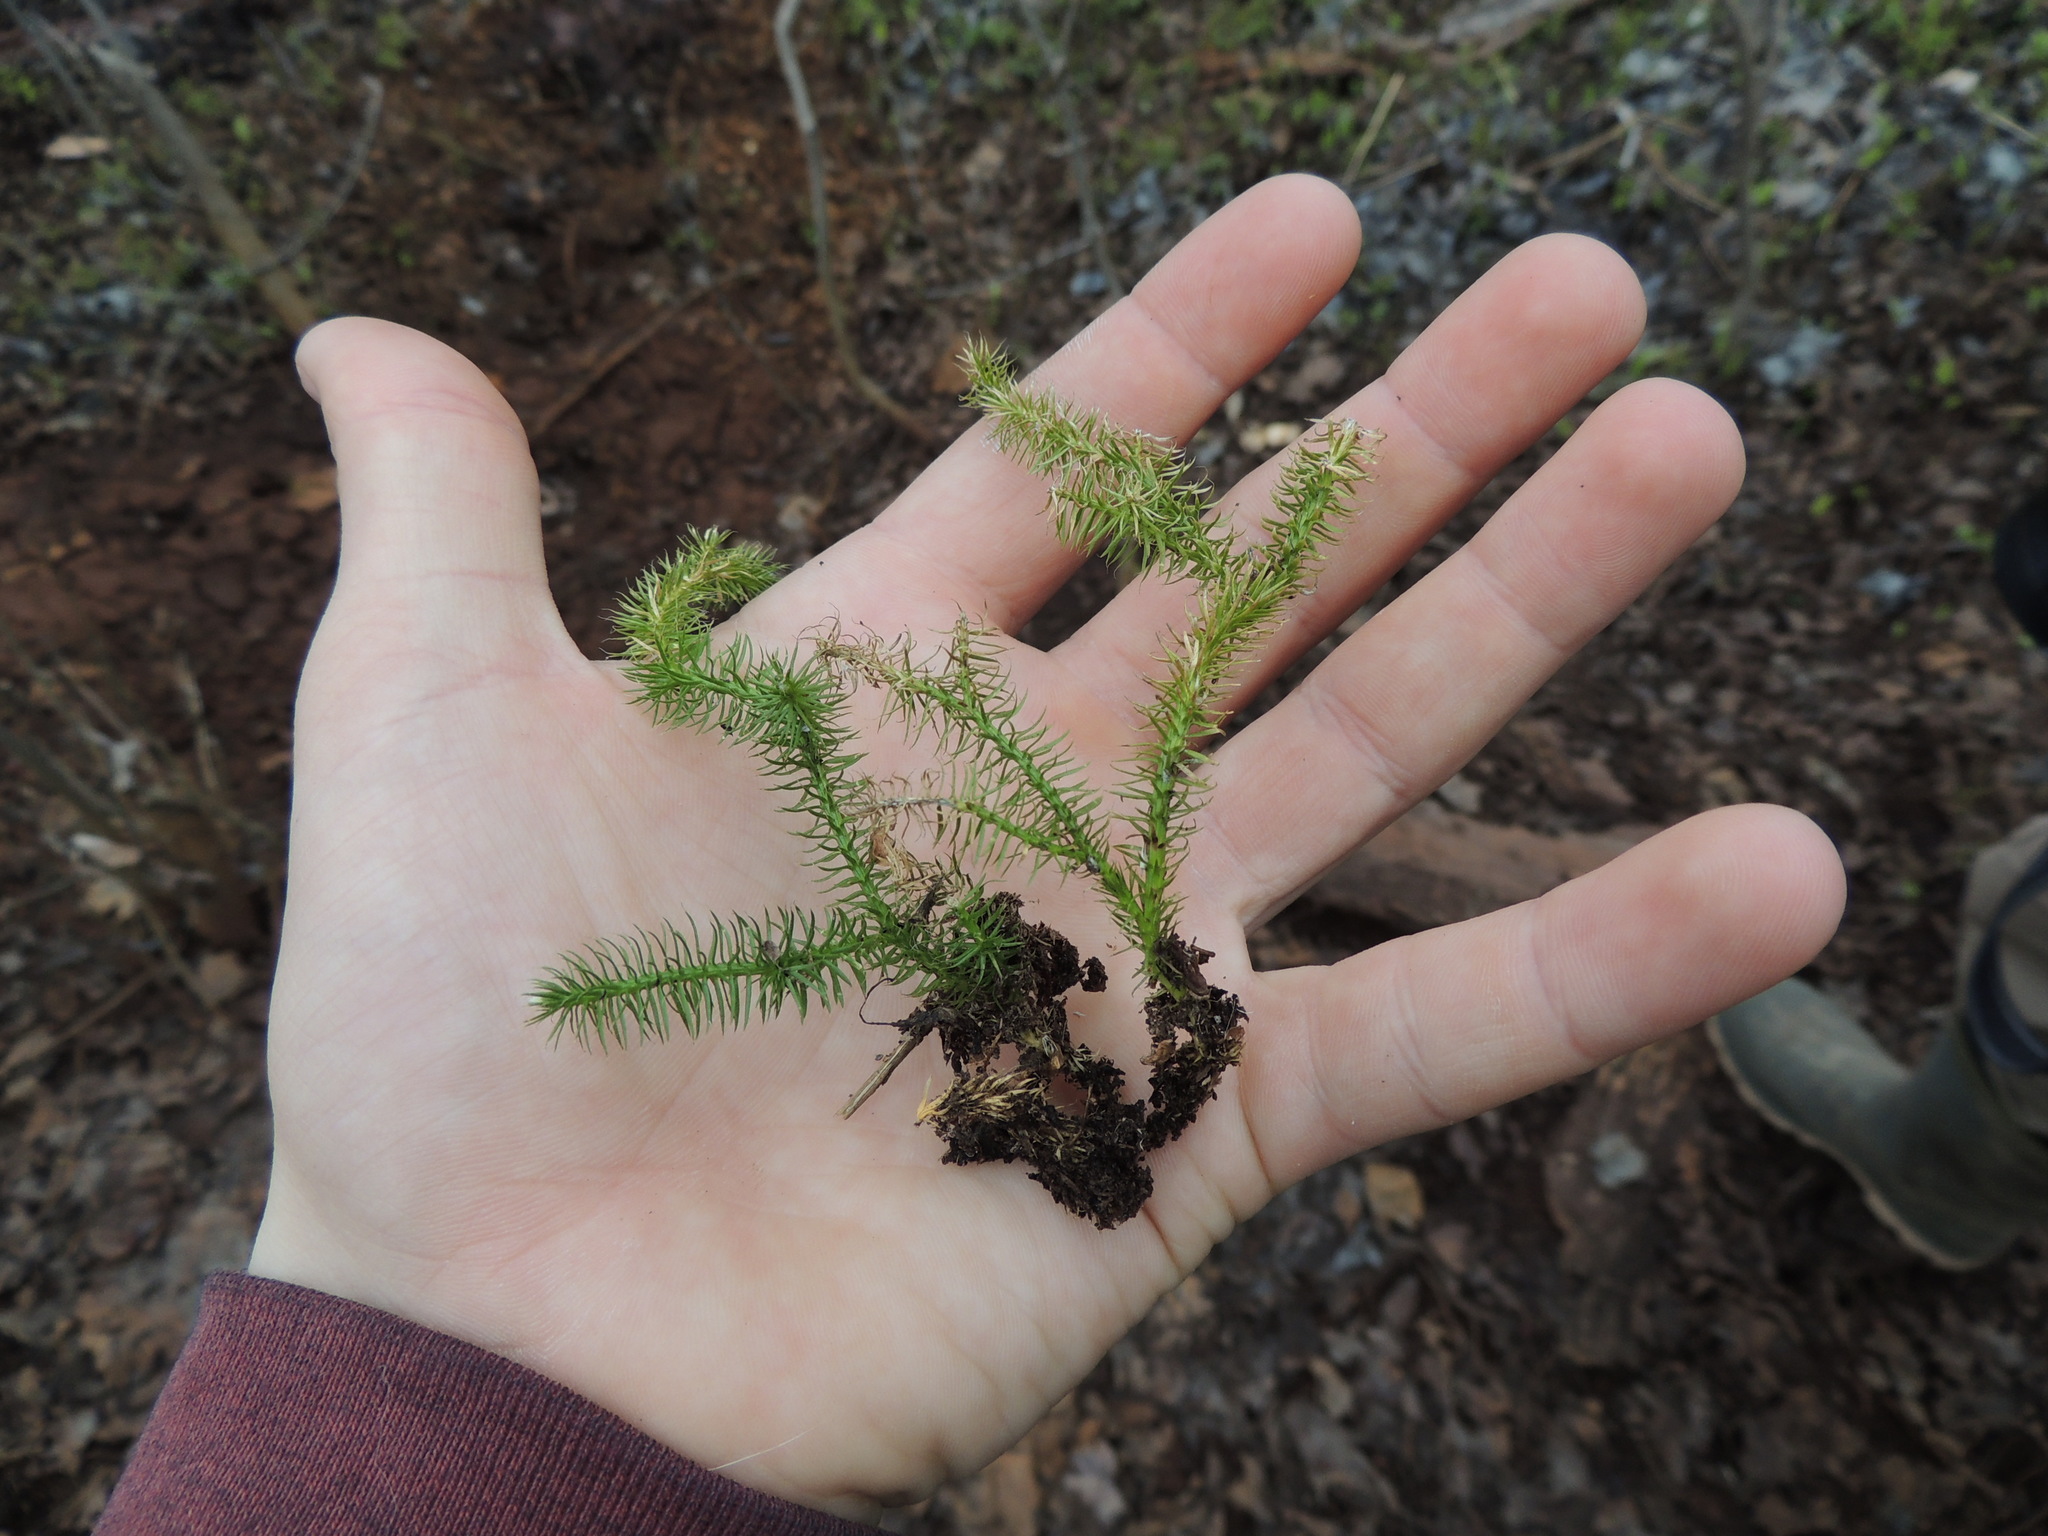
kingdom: Plantae
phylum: Tracheophyta
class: Lycopodiopsida
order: Lycopodiales
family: Lycopodiaceae
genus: Lycopodium
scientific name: Lycopodium clavatum
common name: Stag's-horn clubmoss
